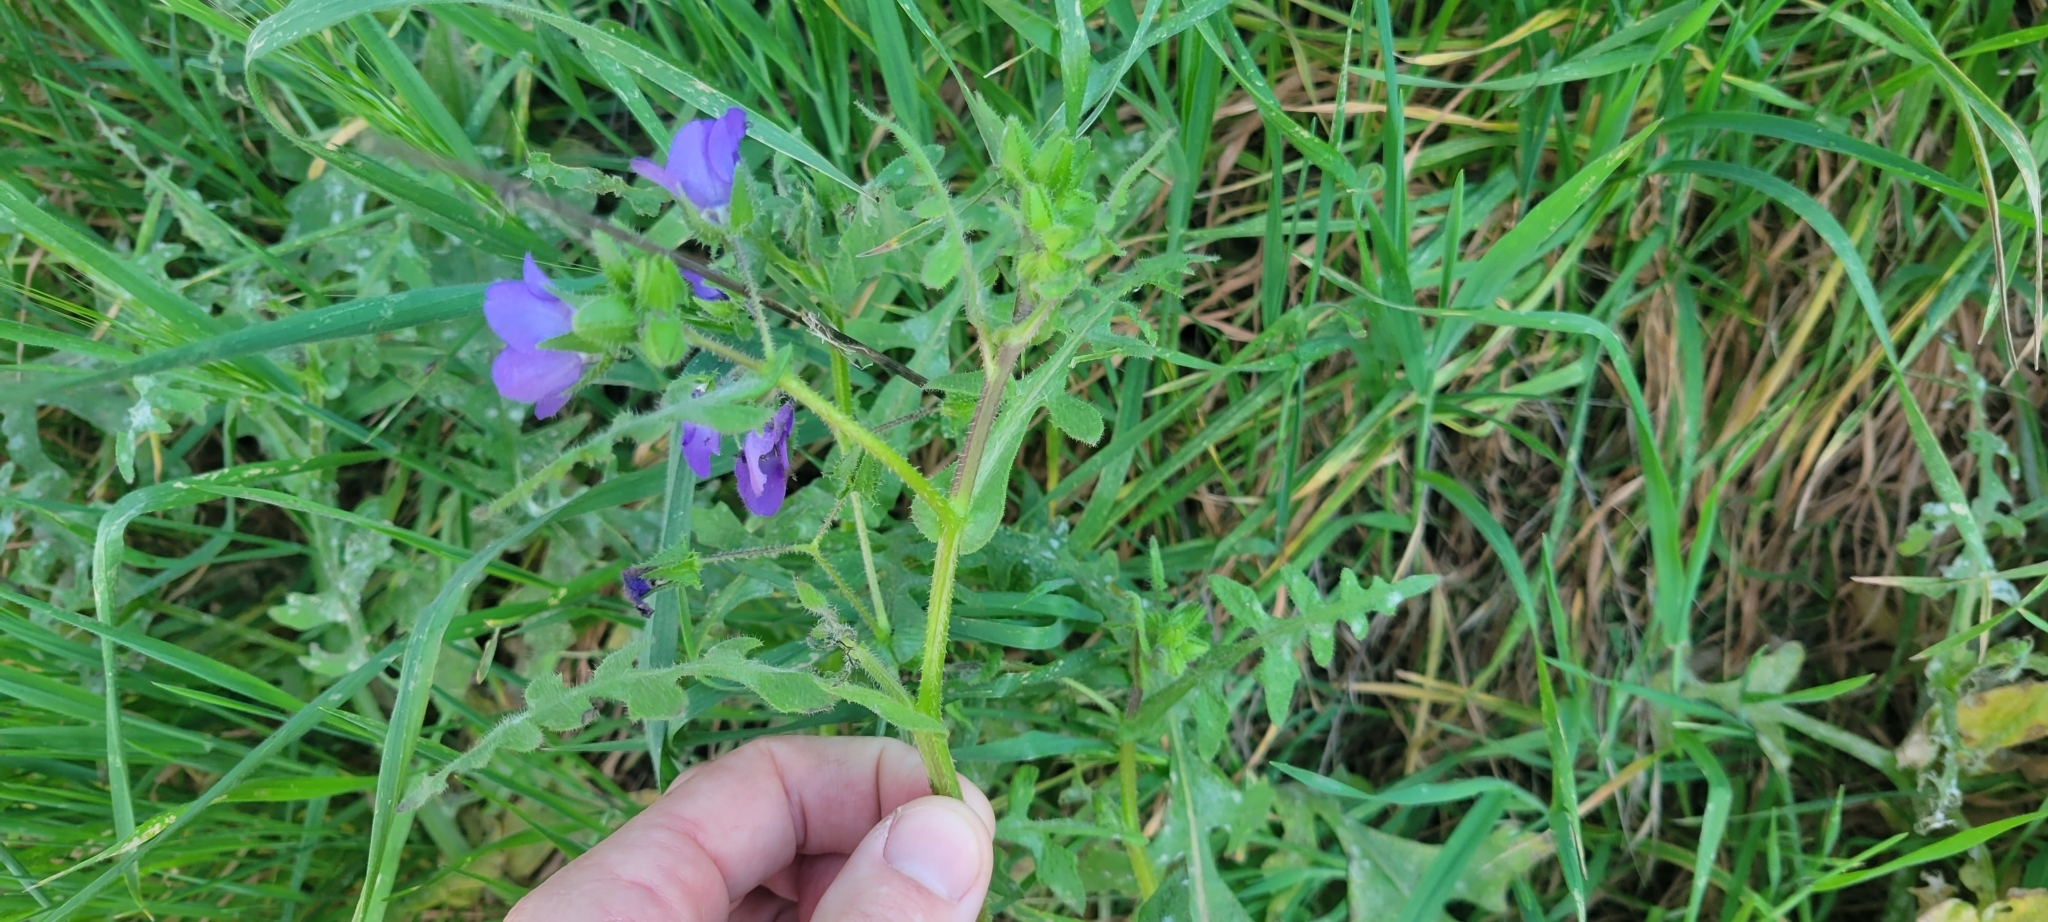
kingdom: Plantae
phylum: Tracheophyta
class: Magnoliopsida
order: Boraginales
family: Hydrophyllaceae
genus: Pholistoma
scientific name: Pholistoma auritum
